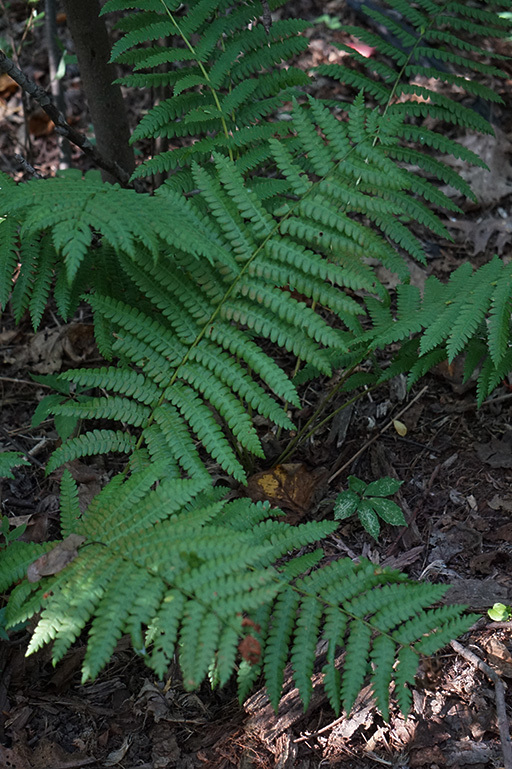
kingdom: Plantae
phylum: Tracheophyta
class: Polypodiopsida
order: Osmundales
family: Osmundaceae
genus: Osmundastrum
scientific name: Osmundastrum cinnamomeum
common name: Cinnamon fern
